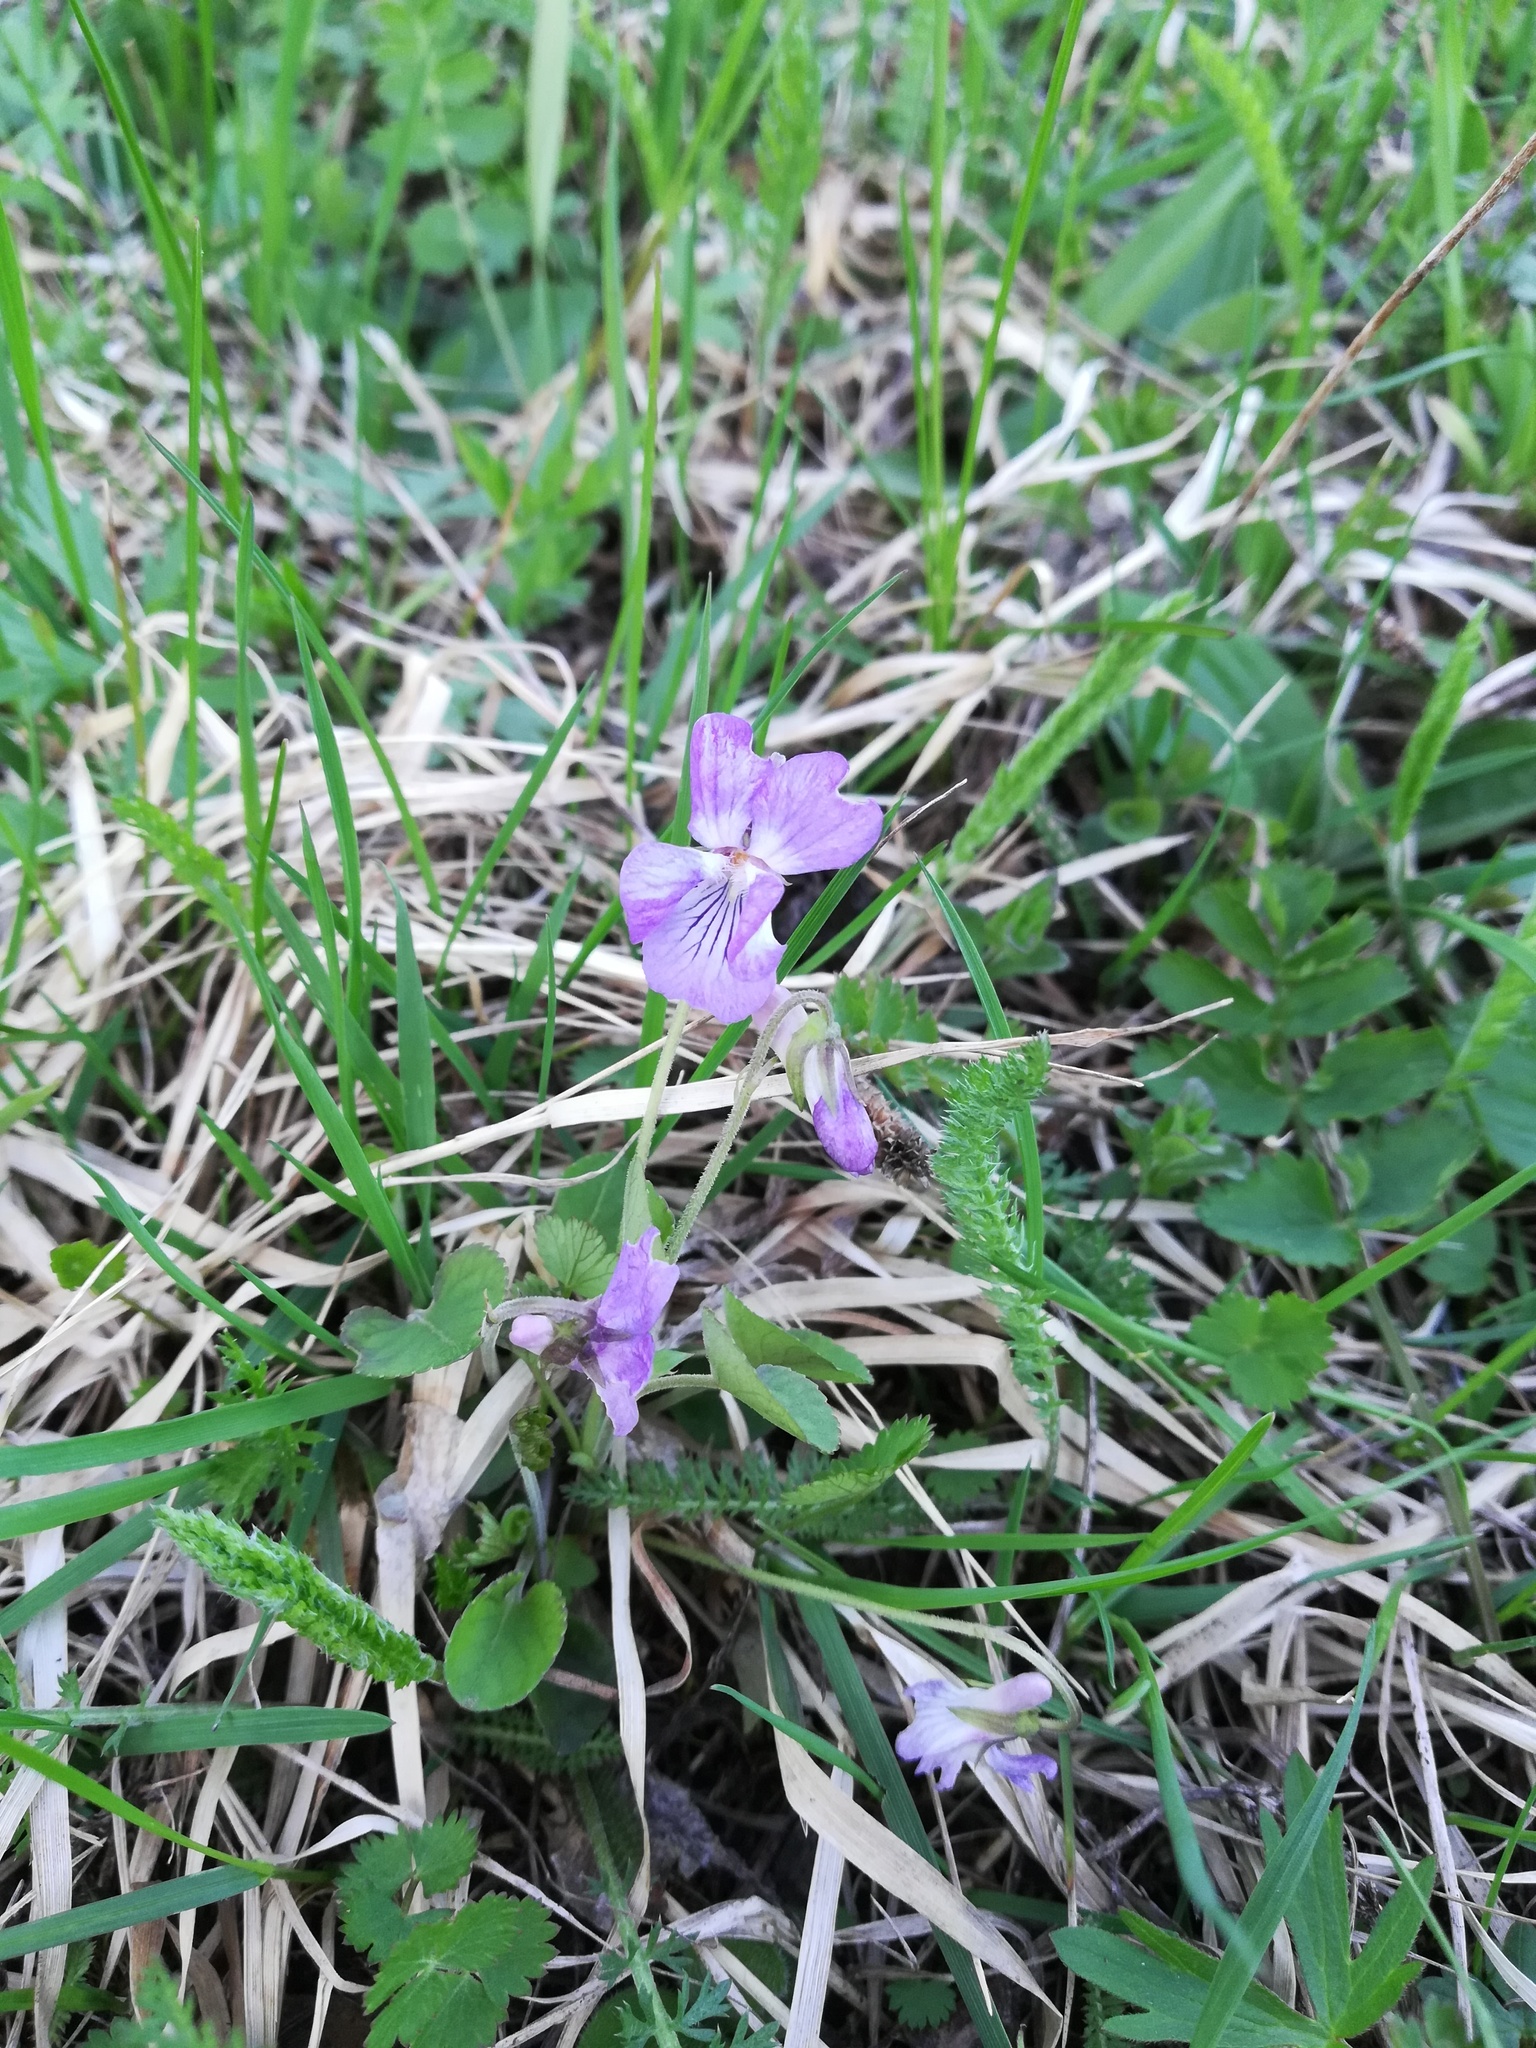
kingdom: Plantae
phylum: Tracheophyta
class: Magnoliopsida
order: Malpighiales
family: Violaceae
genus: Viola
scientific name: Viola rupestris
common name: Teesdale violet
